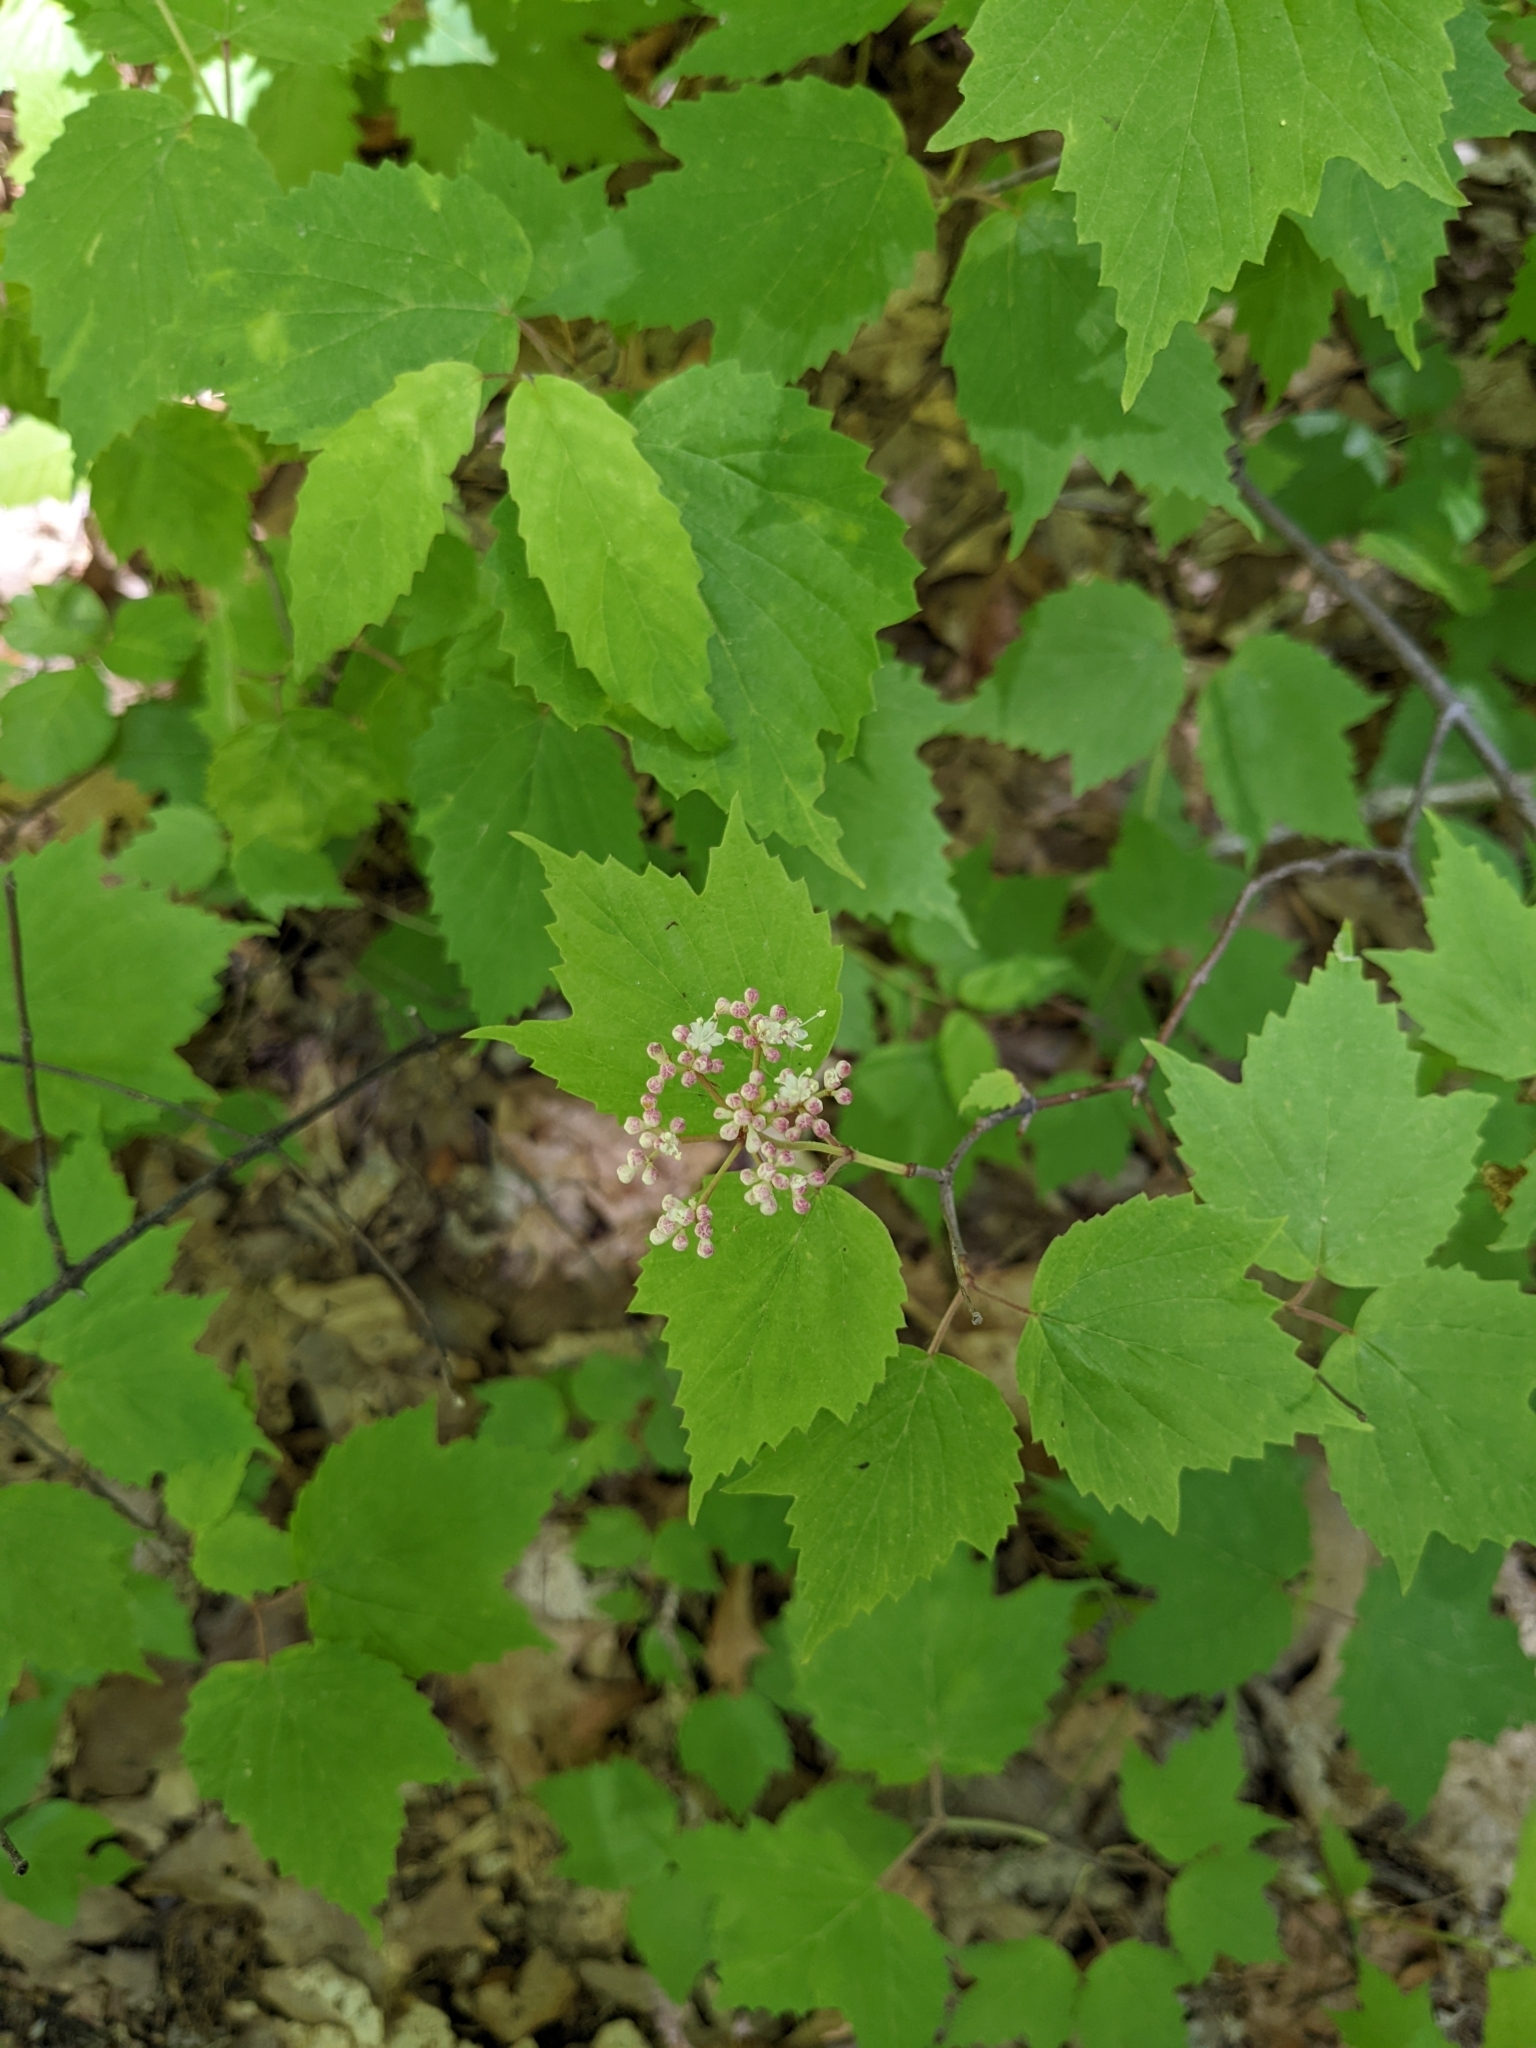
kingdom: Plantae
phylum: Tracheophyta
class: Magnoliopsida
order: Dipsacales
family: Viburnaceae
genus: Viburnum
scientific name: Viburnum acerifolium
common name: Dockmackie
